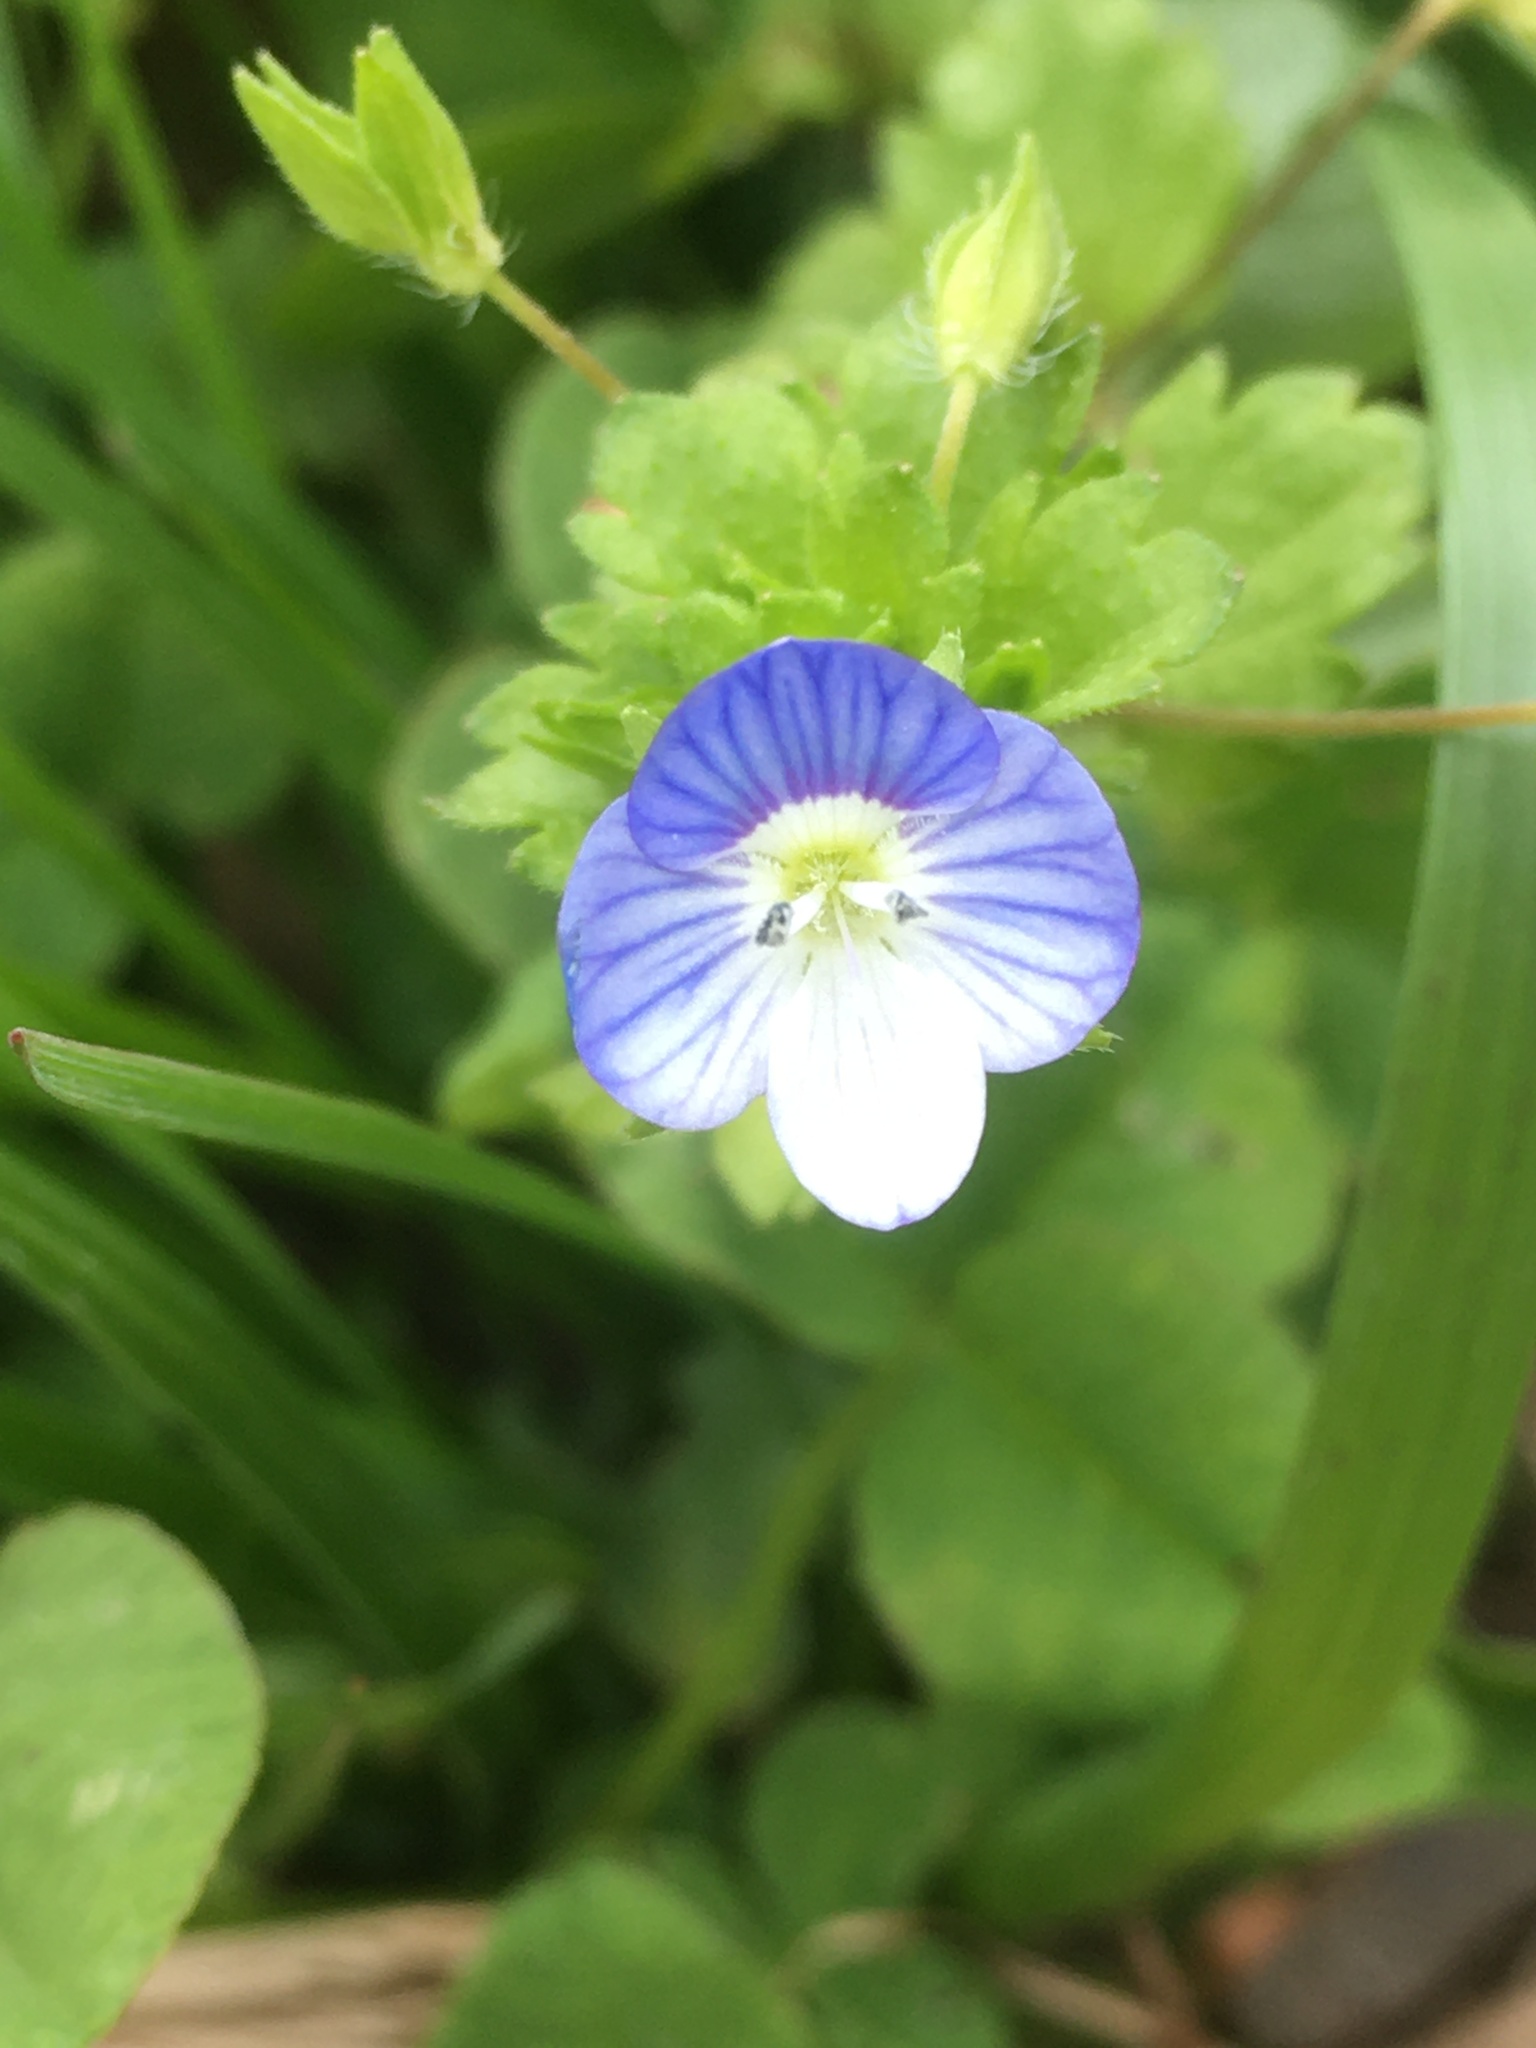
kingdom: Plantae
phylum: Tracheophyta
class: Magnoliopsida
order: Lamiales
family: Plantaginaceae
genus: Veronica
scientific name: Veronica persica
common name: Common field-speedwell
